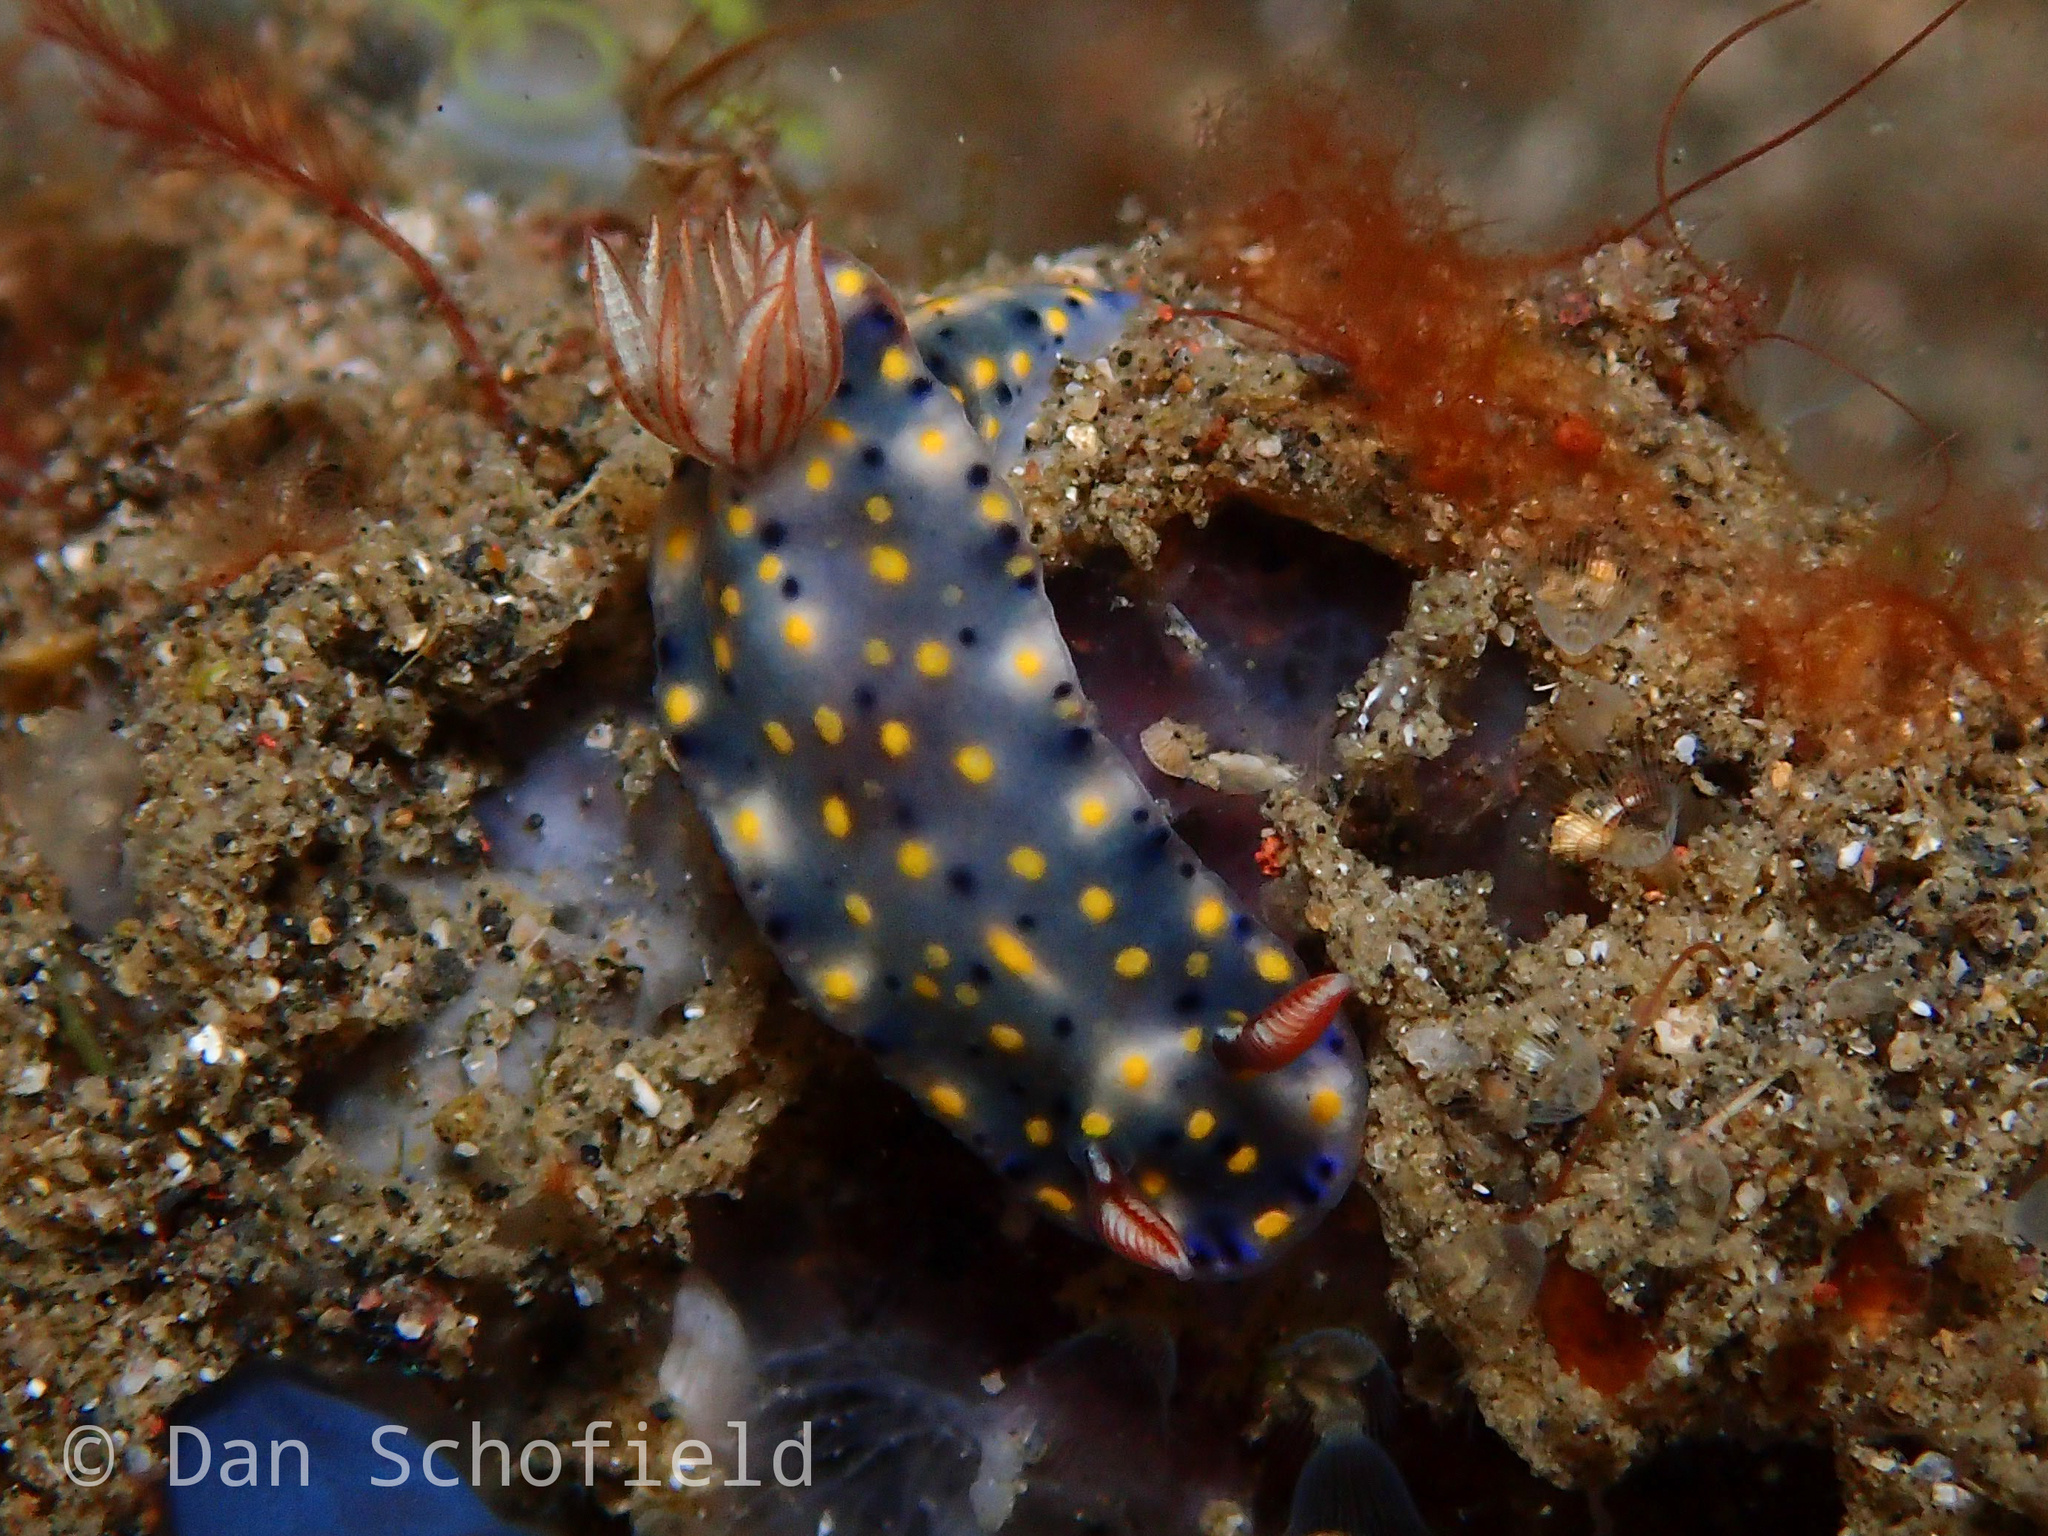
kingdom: Animalia
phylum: Mollusca
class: Gastropoda
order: Nudibranchia
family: Chromodorididae
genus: Hypselodoris
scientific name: Hypselodoris roo
